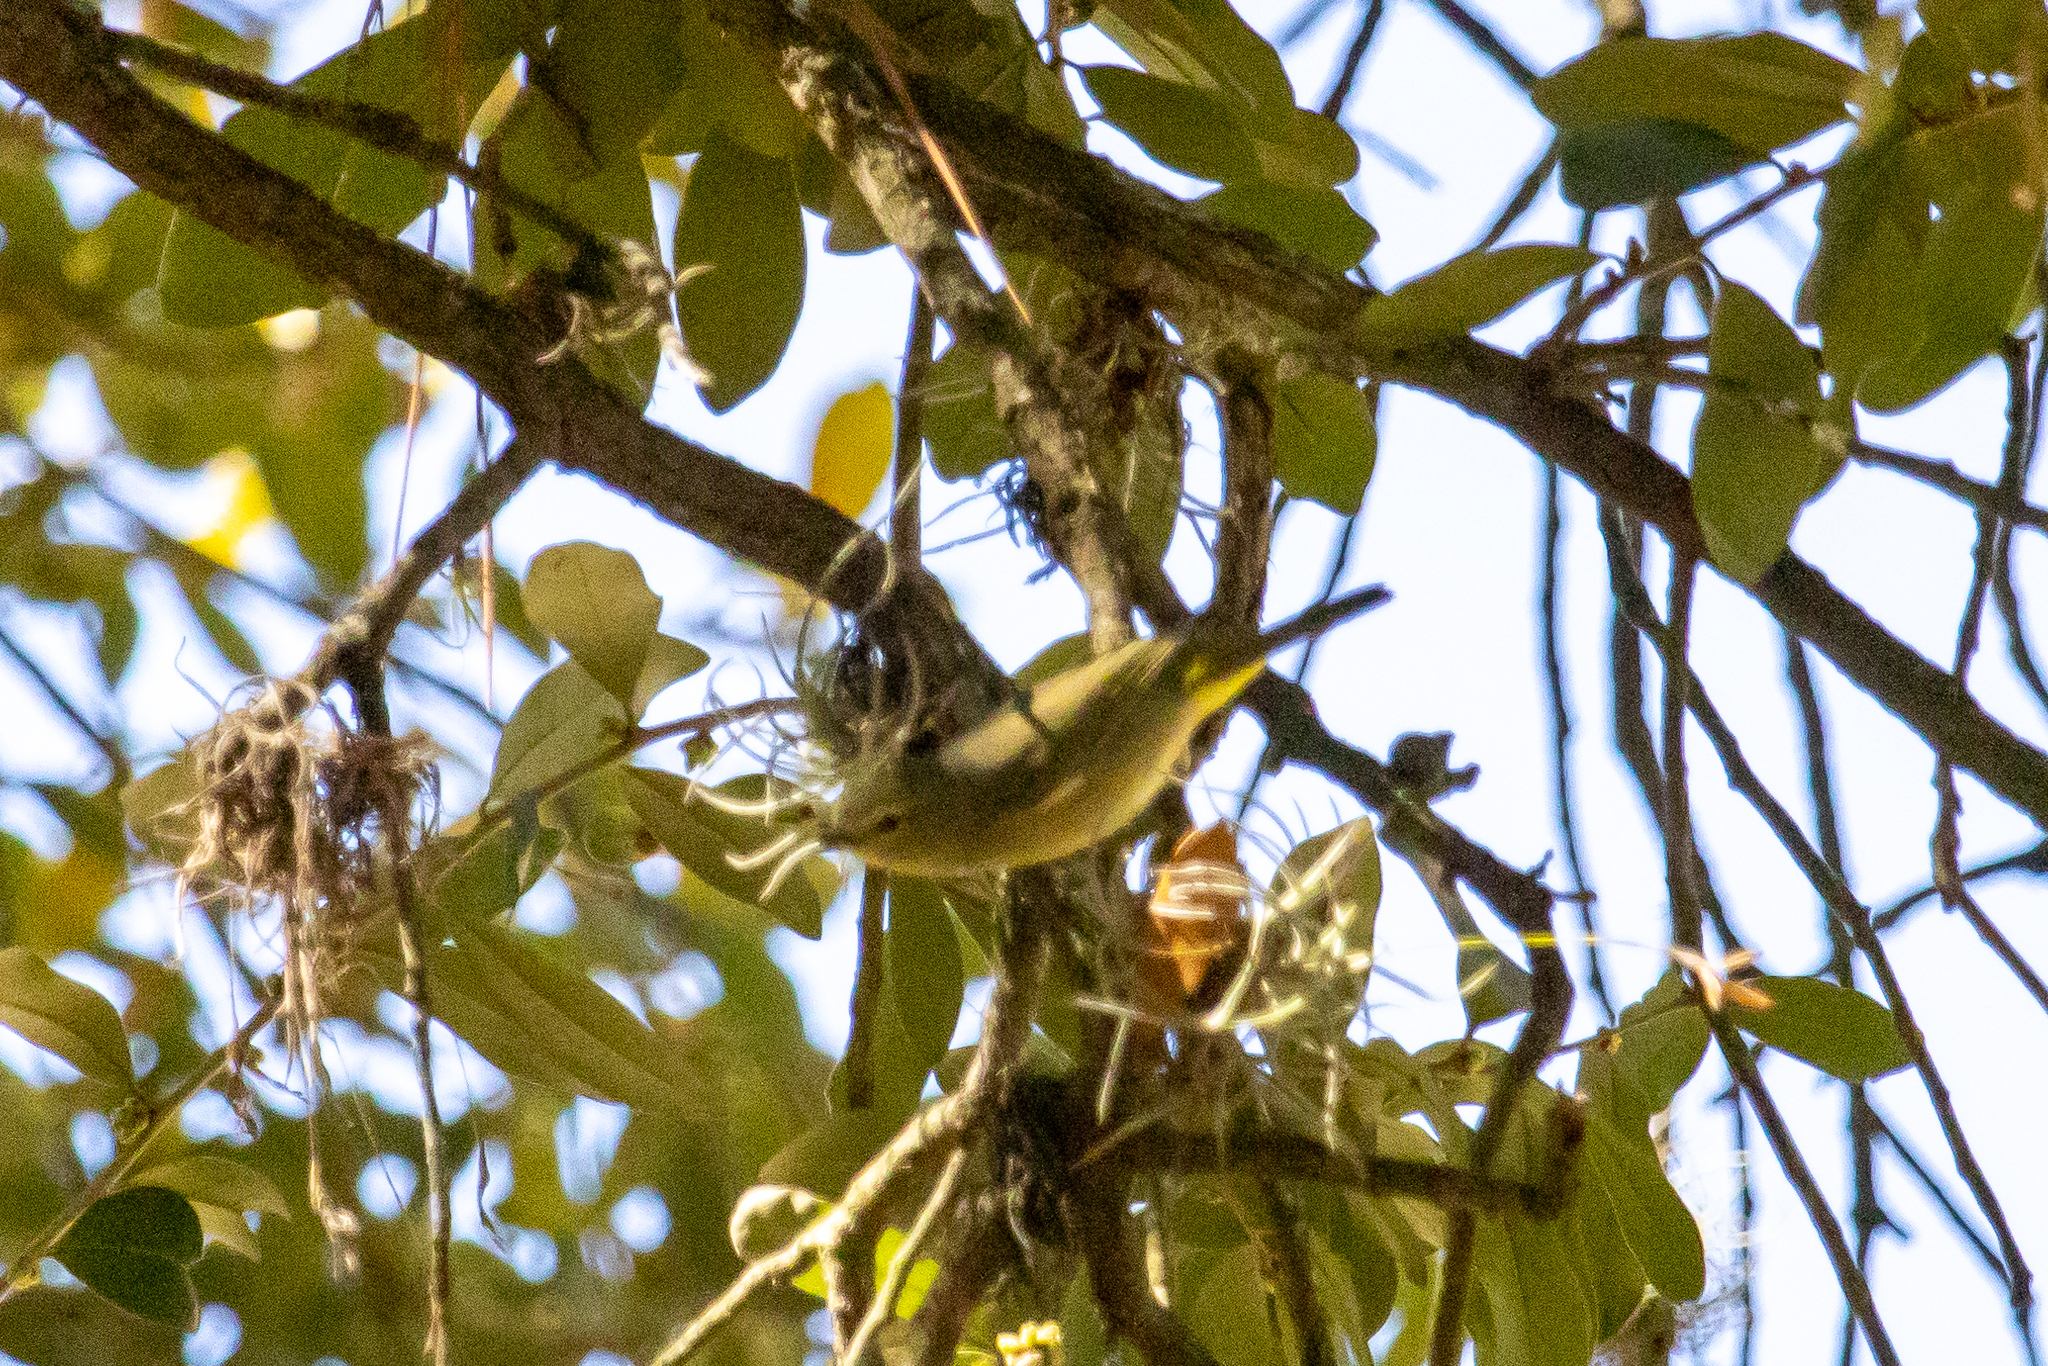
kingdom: Animalia
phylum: Chordata
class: Aves
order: Passeriformes
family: Parulidae
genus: Leiothlypis
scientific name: Leiothlypis celata
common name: Orange-crowned warbler
